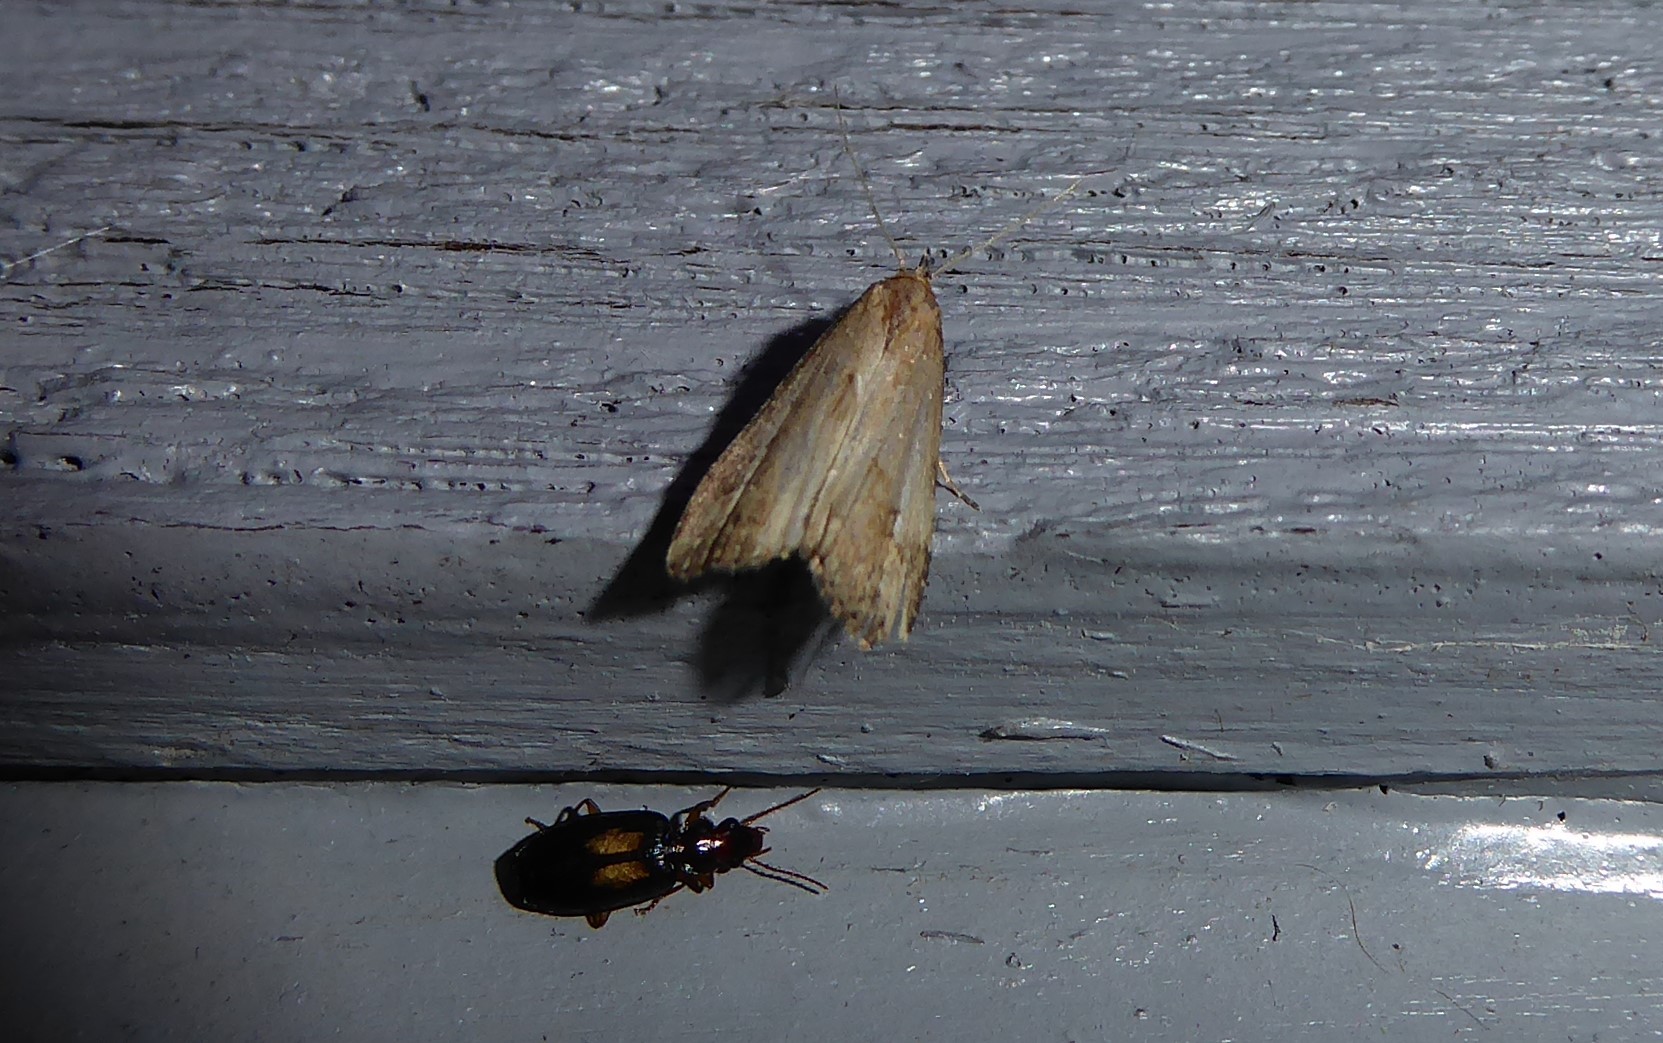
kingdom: Animalia
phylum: Arthropoda
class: Insecta
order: Coleoptera
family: Carabidae
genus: Agonocheila
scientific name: Agonocheila antipodum
